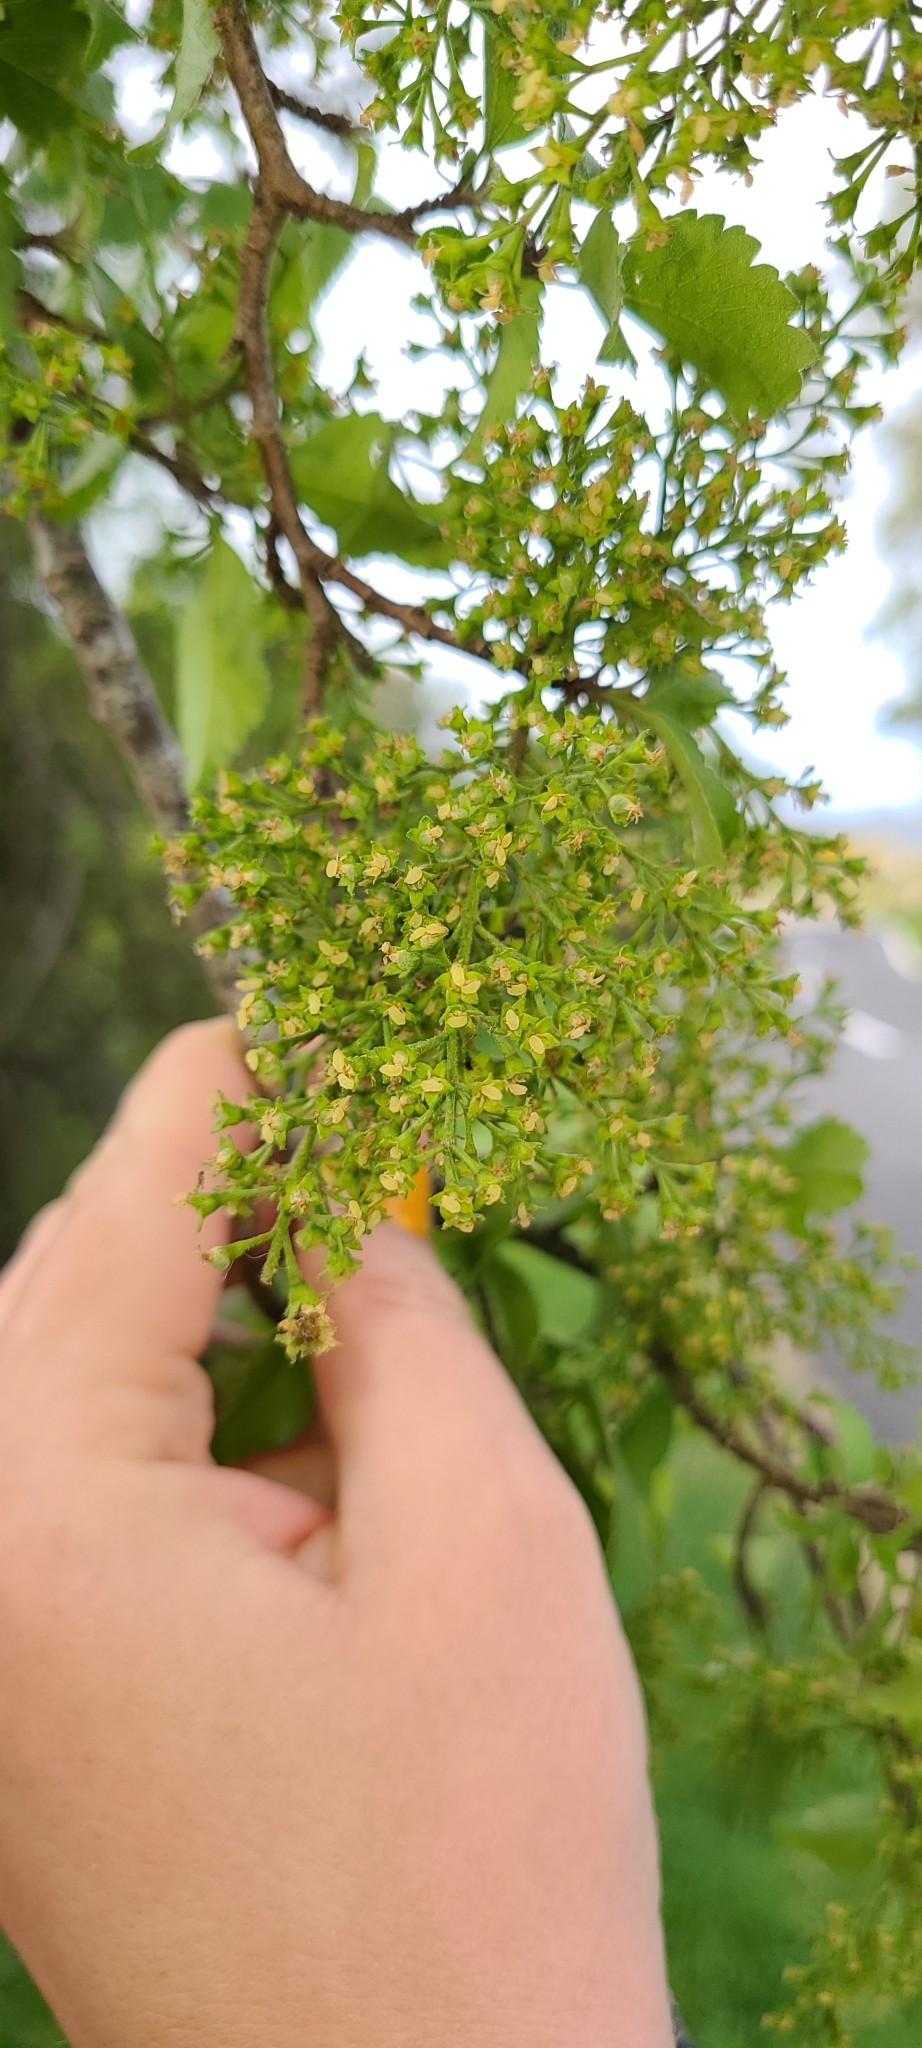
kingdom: Plantae
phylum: Tracheophyta
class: Magnoliopsida
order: Malvales
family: Malvaceae
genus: Plagianthus
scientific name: Plagianthus regius
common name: Manatu
